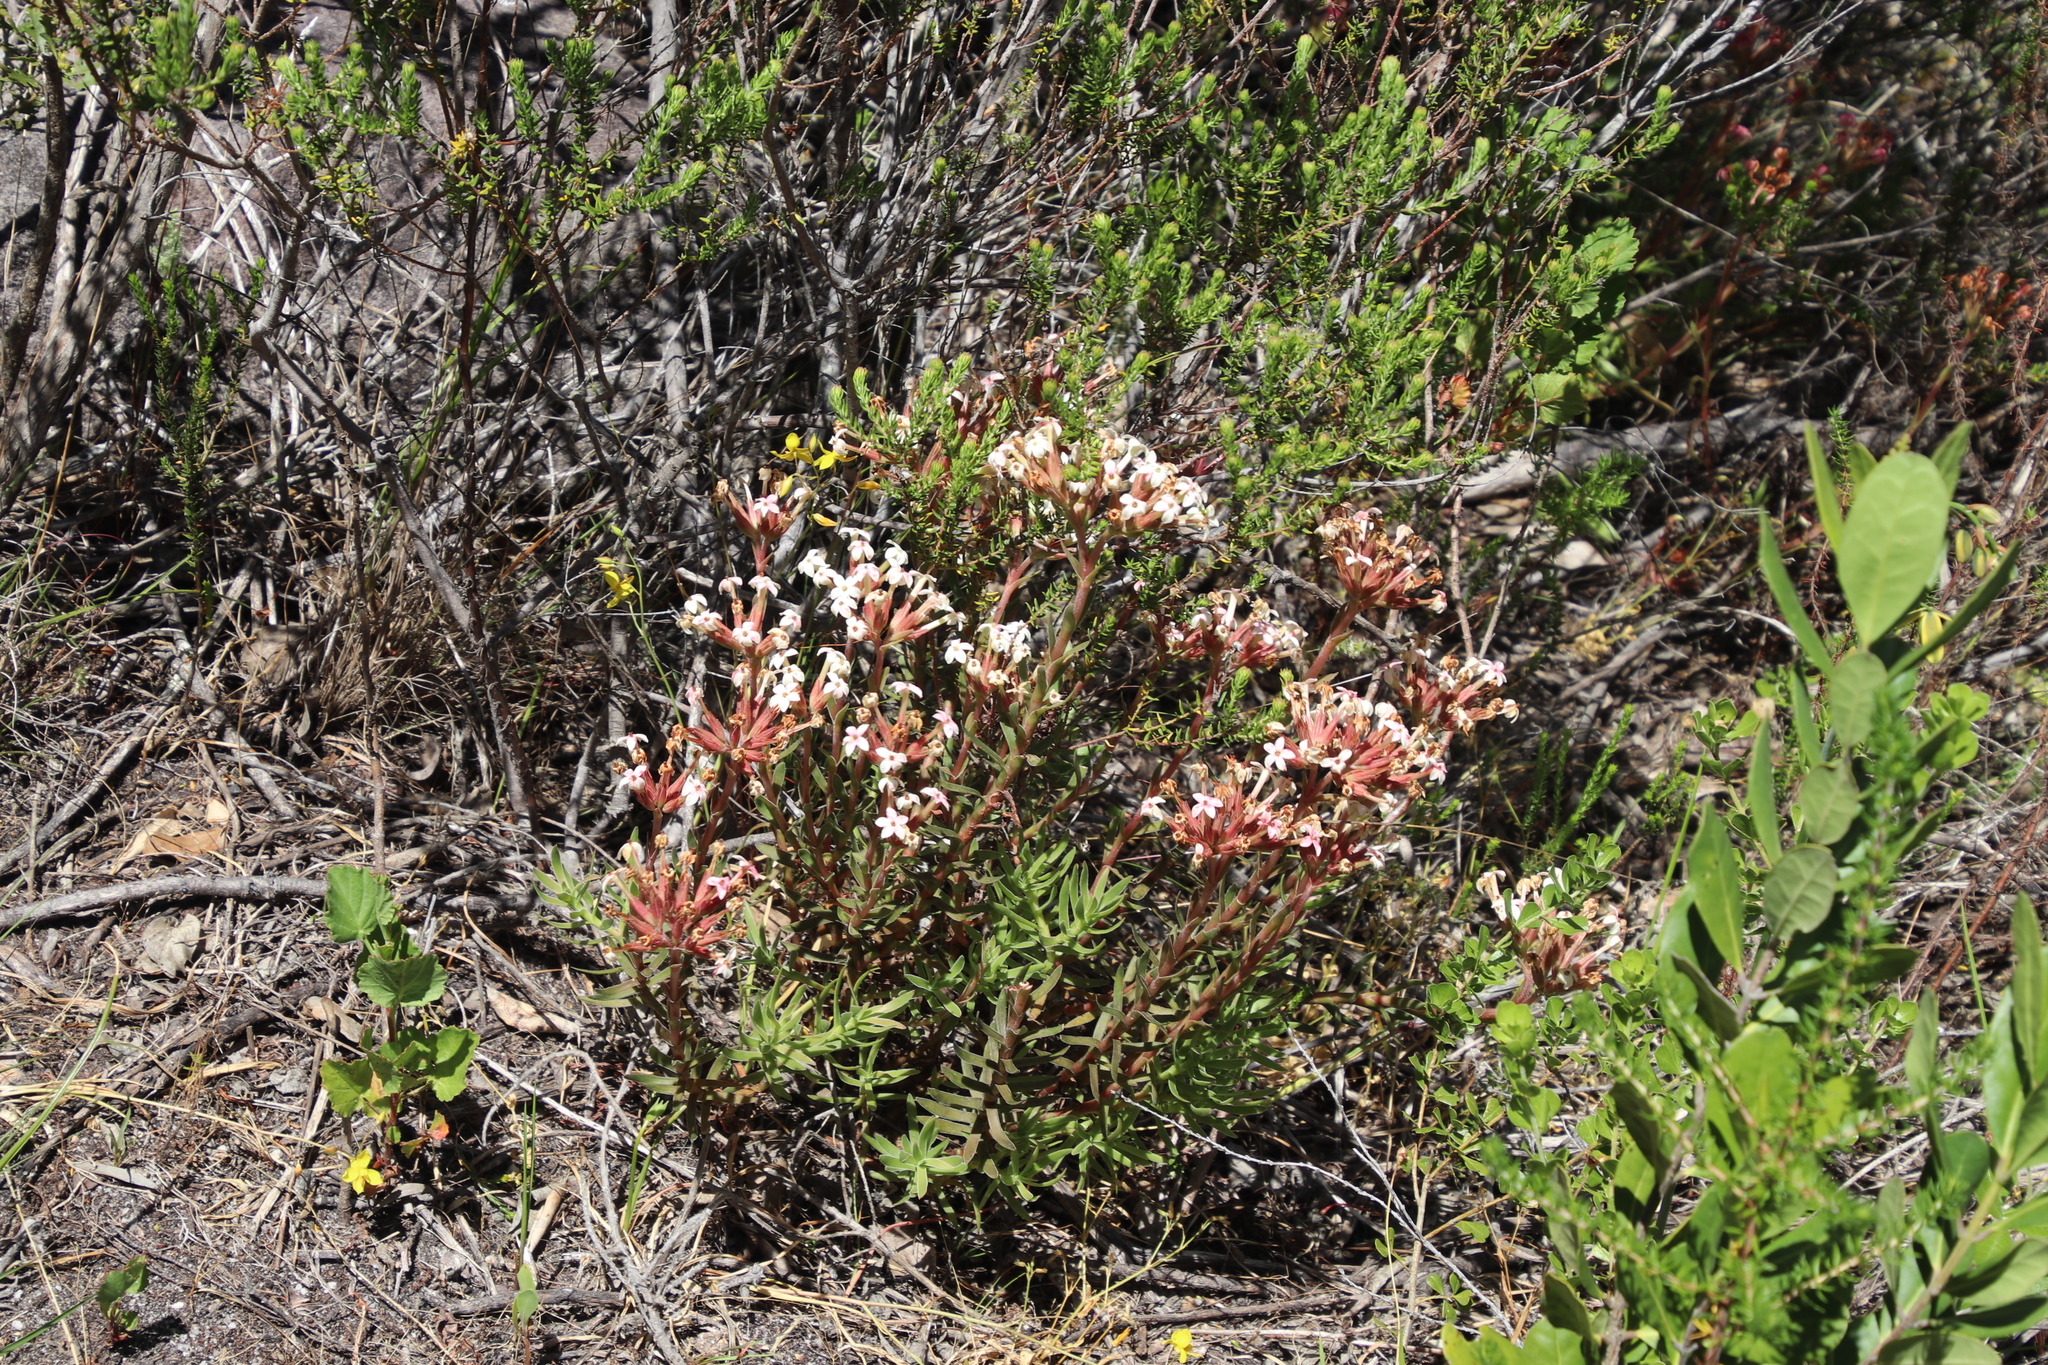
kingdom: Plantae
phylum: Tracheophyta
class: Magnoliopsida
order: Saxifragales
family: Crassulaceae
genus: Crassula
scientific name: Crassula fascicularis
